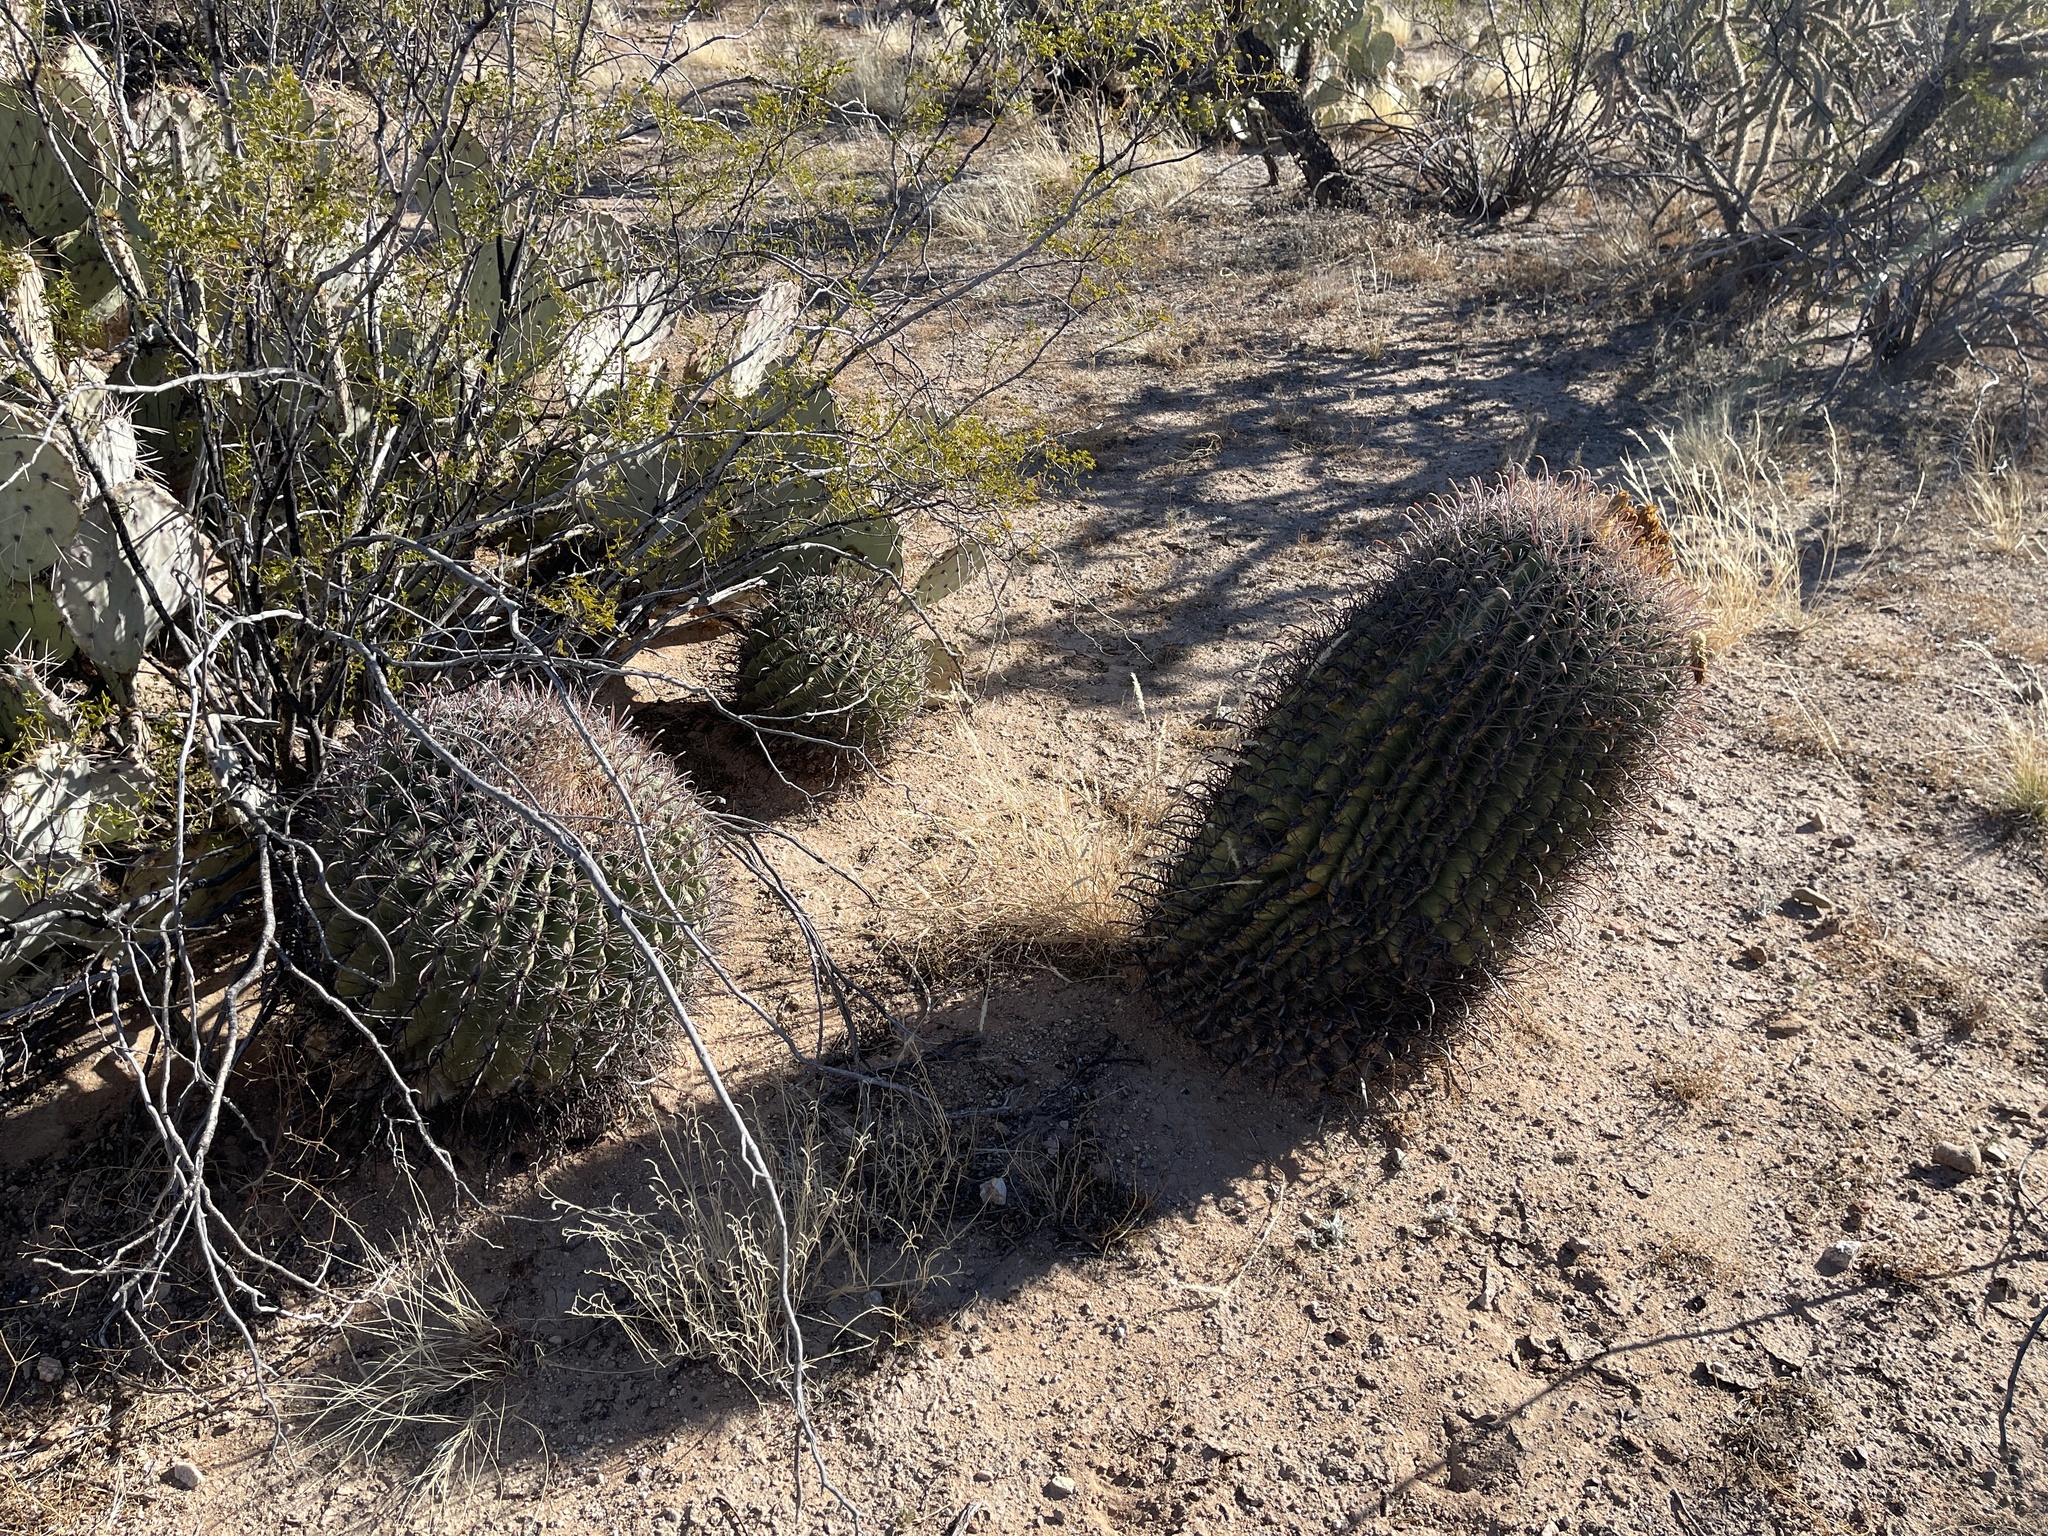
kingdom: Plantae
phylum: Tracheophyta
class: Magnoliopsida
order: Caryophyllales
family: Cactaceae
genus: Ferocactus
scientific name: Ferocactus wislizeni
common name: Candy barrel cactus
